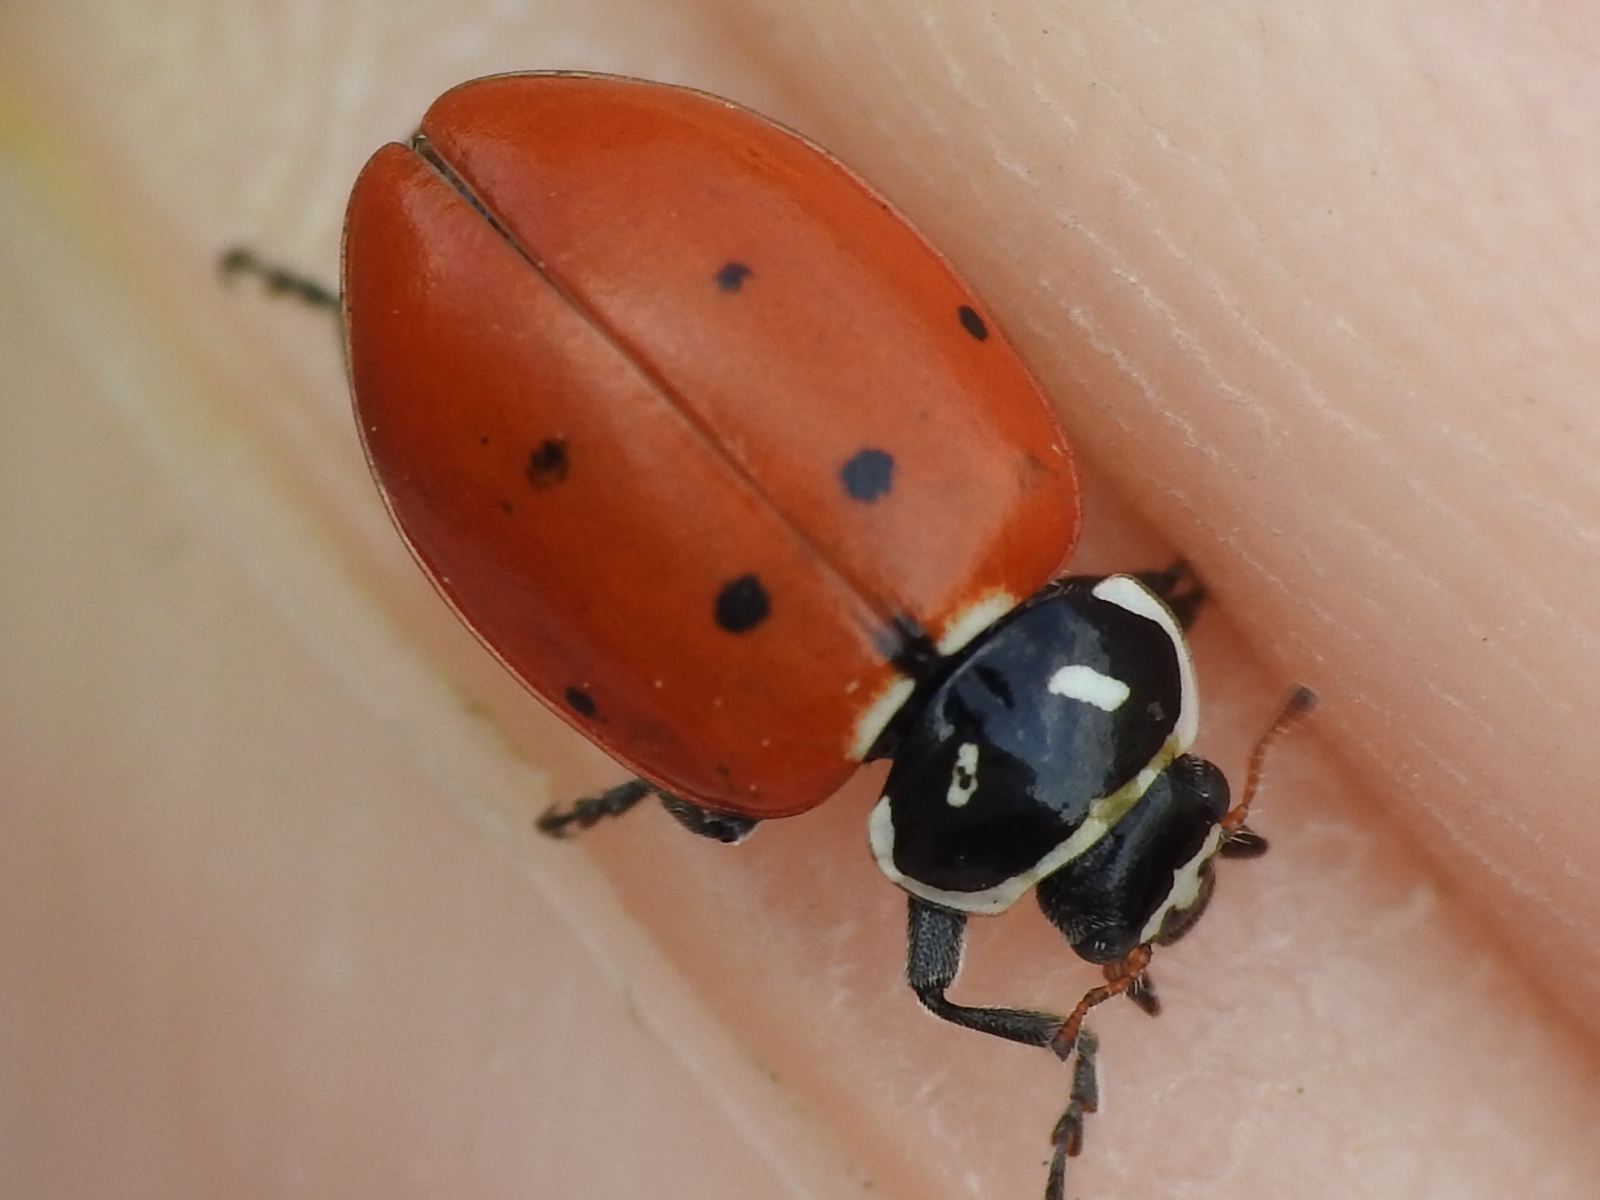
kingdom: Animalia
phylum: Arthropoda
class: Insecta
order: Coleoptera
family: Coccinellidae
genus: Hippodamia
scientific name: Hippodamia convergens
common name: Convergent lady beetle
